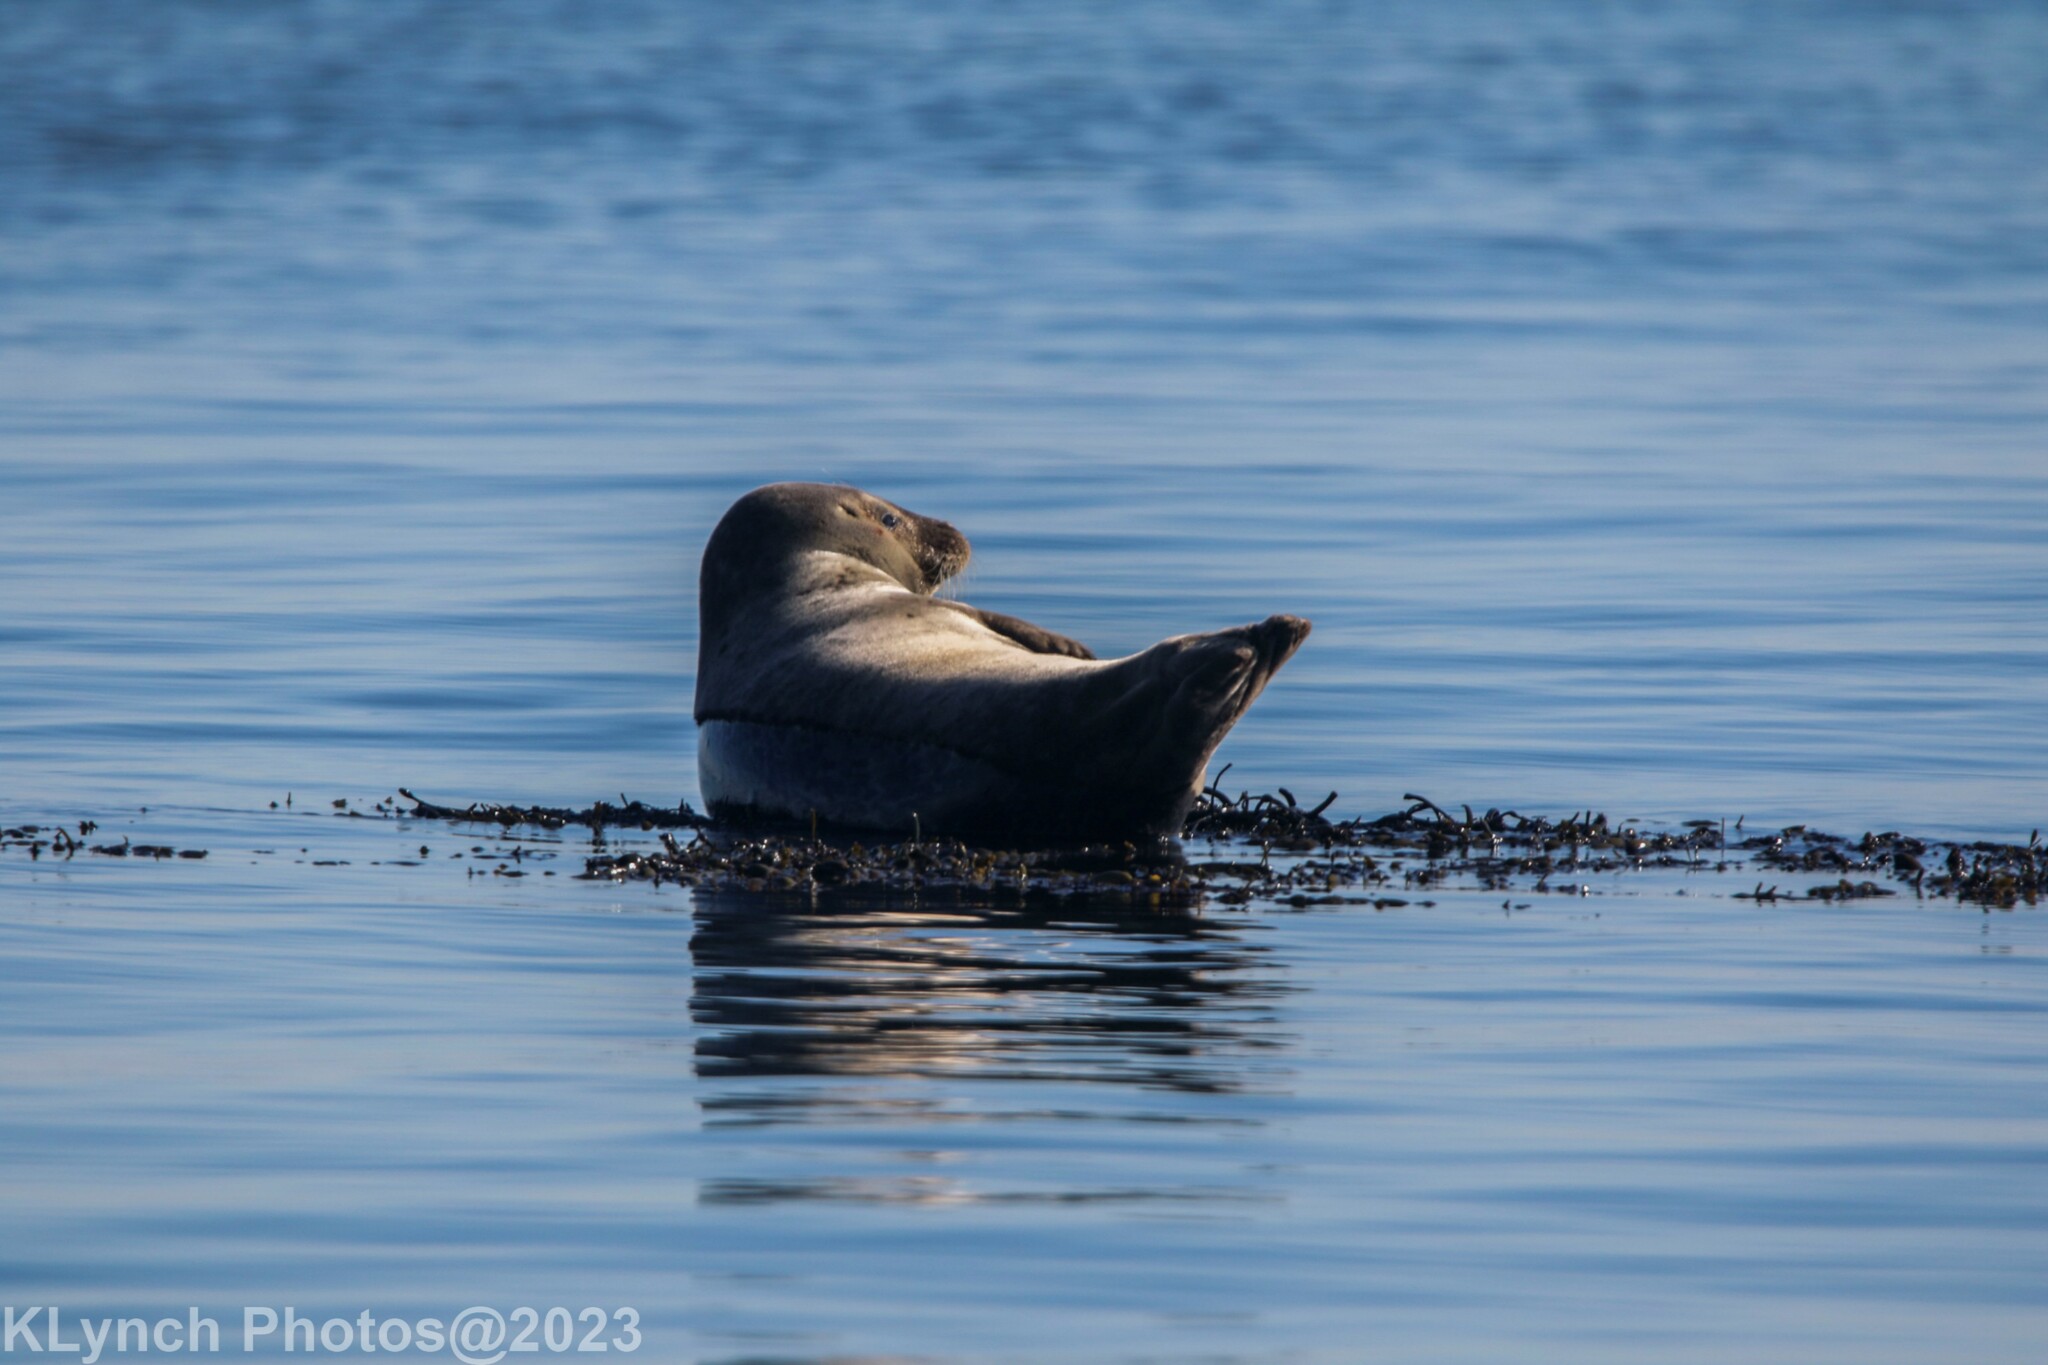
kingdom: Animalia
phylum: Chordata
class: Mammalia
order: Carnivora
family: Phocidae
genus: Phoca
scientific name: Phoca vitulina
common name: Harbor seal
